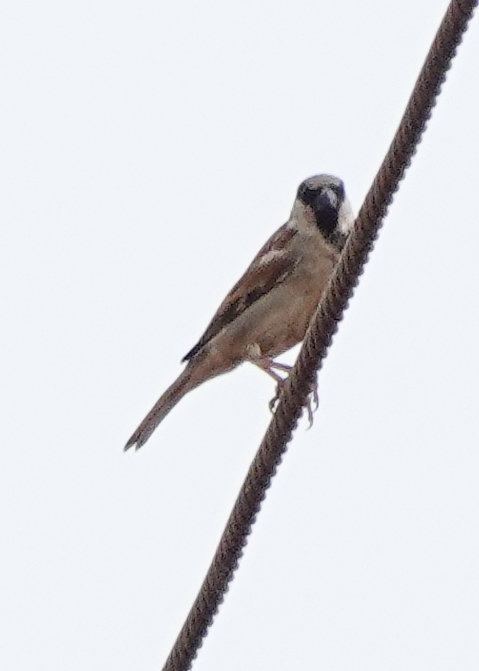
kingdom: Animalia
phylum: Chordata
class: Aves
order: Passeriformes
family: Passeridae
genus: Passer
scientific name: Passer domesticus
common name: House sparrow
